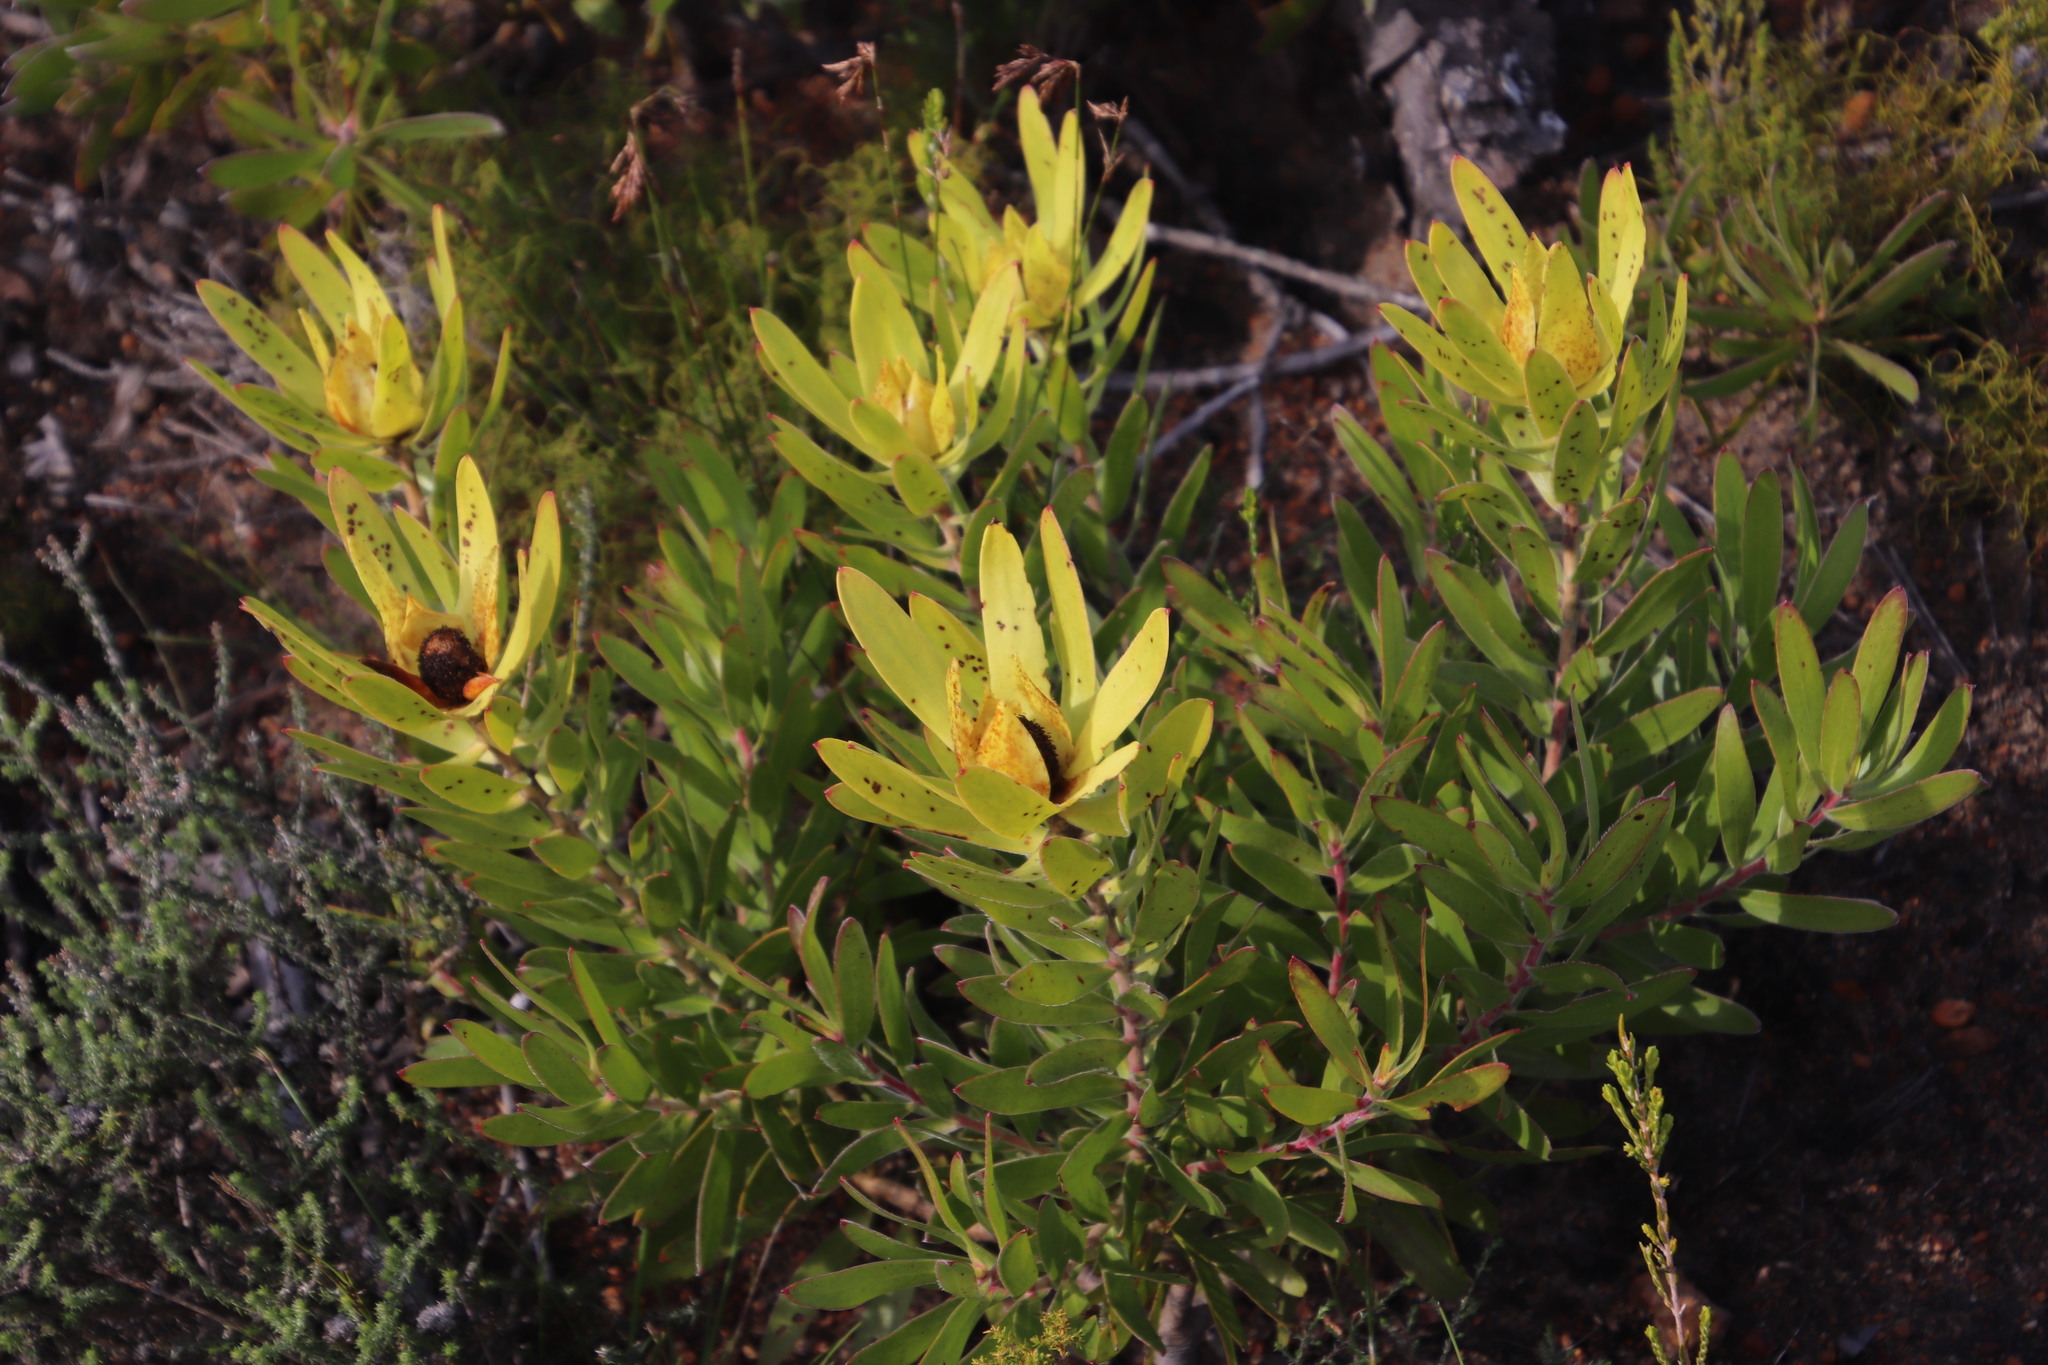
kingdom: Plantae
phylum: Tracheophyta
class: Magnoliopsida
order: Proteales
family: Proteaceae
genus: Leucadendron
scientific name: Leucadendron laureolum
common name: Golden sunshinebush
